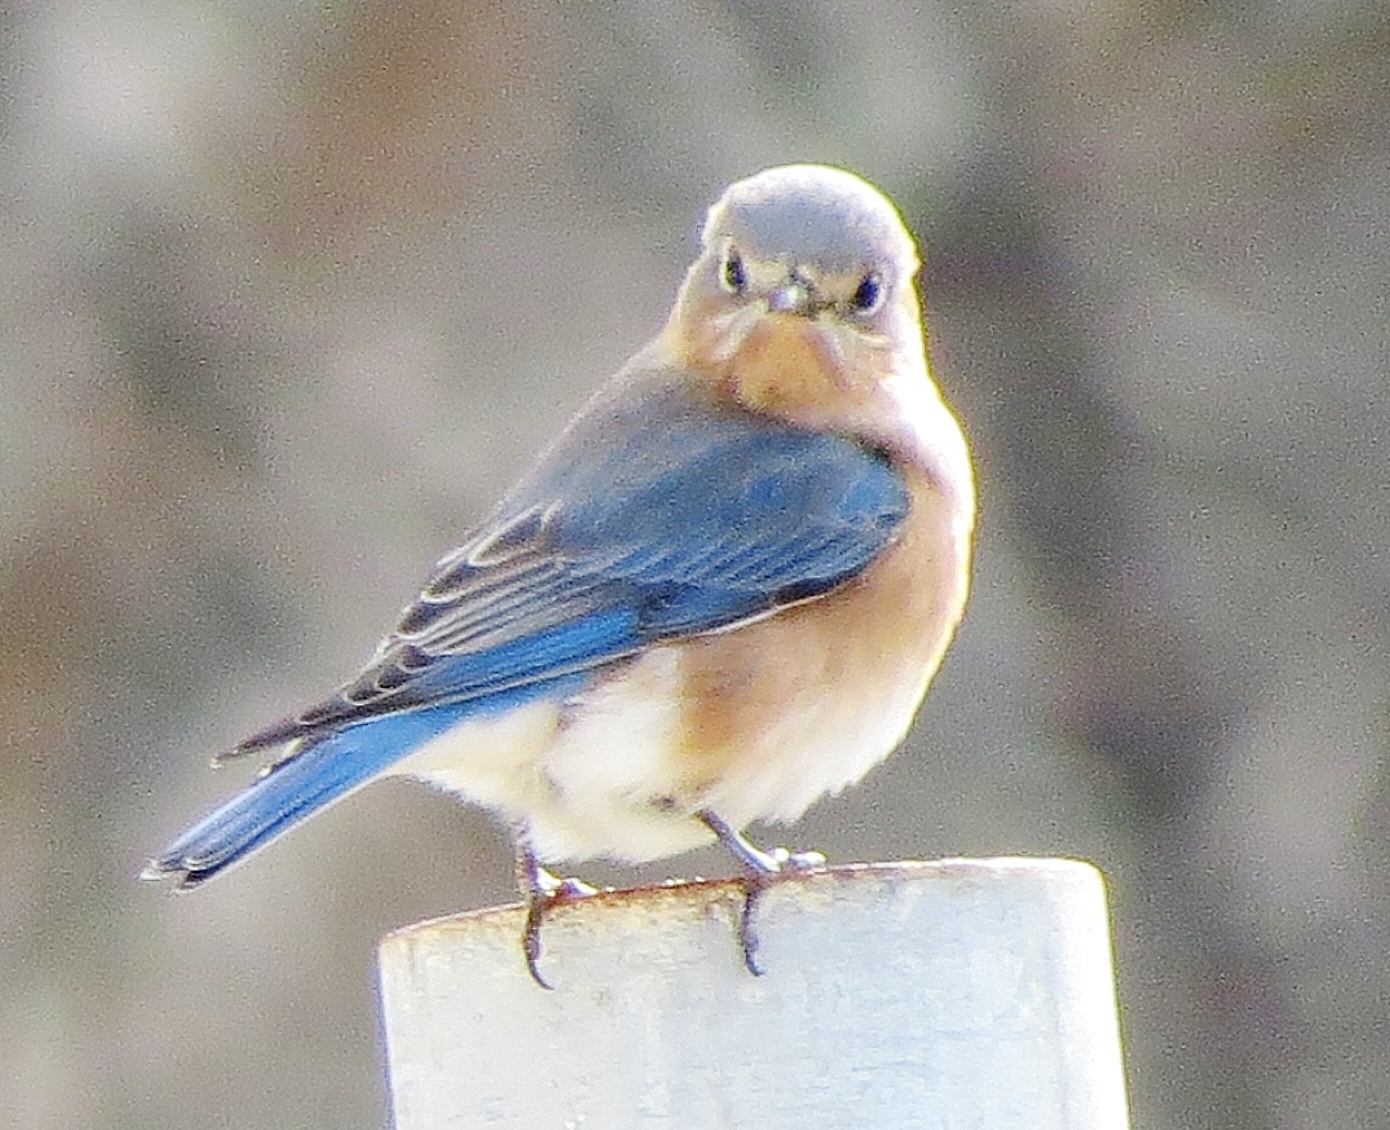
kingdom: Animalia
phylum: Chordata
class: Aves
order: Passeriformes
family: Turdidae
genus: Sialia
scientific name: Sialia sialis
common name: Eastern bluebird
